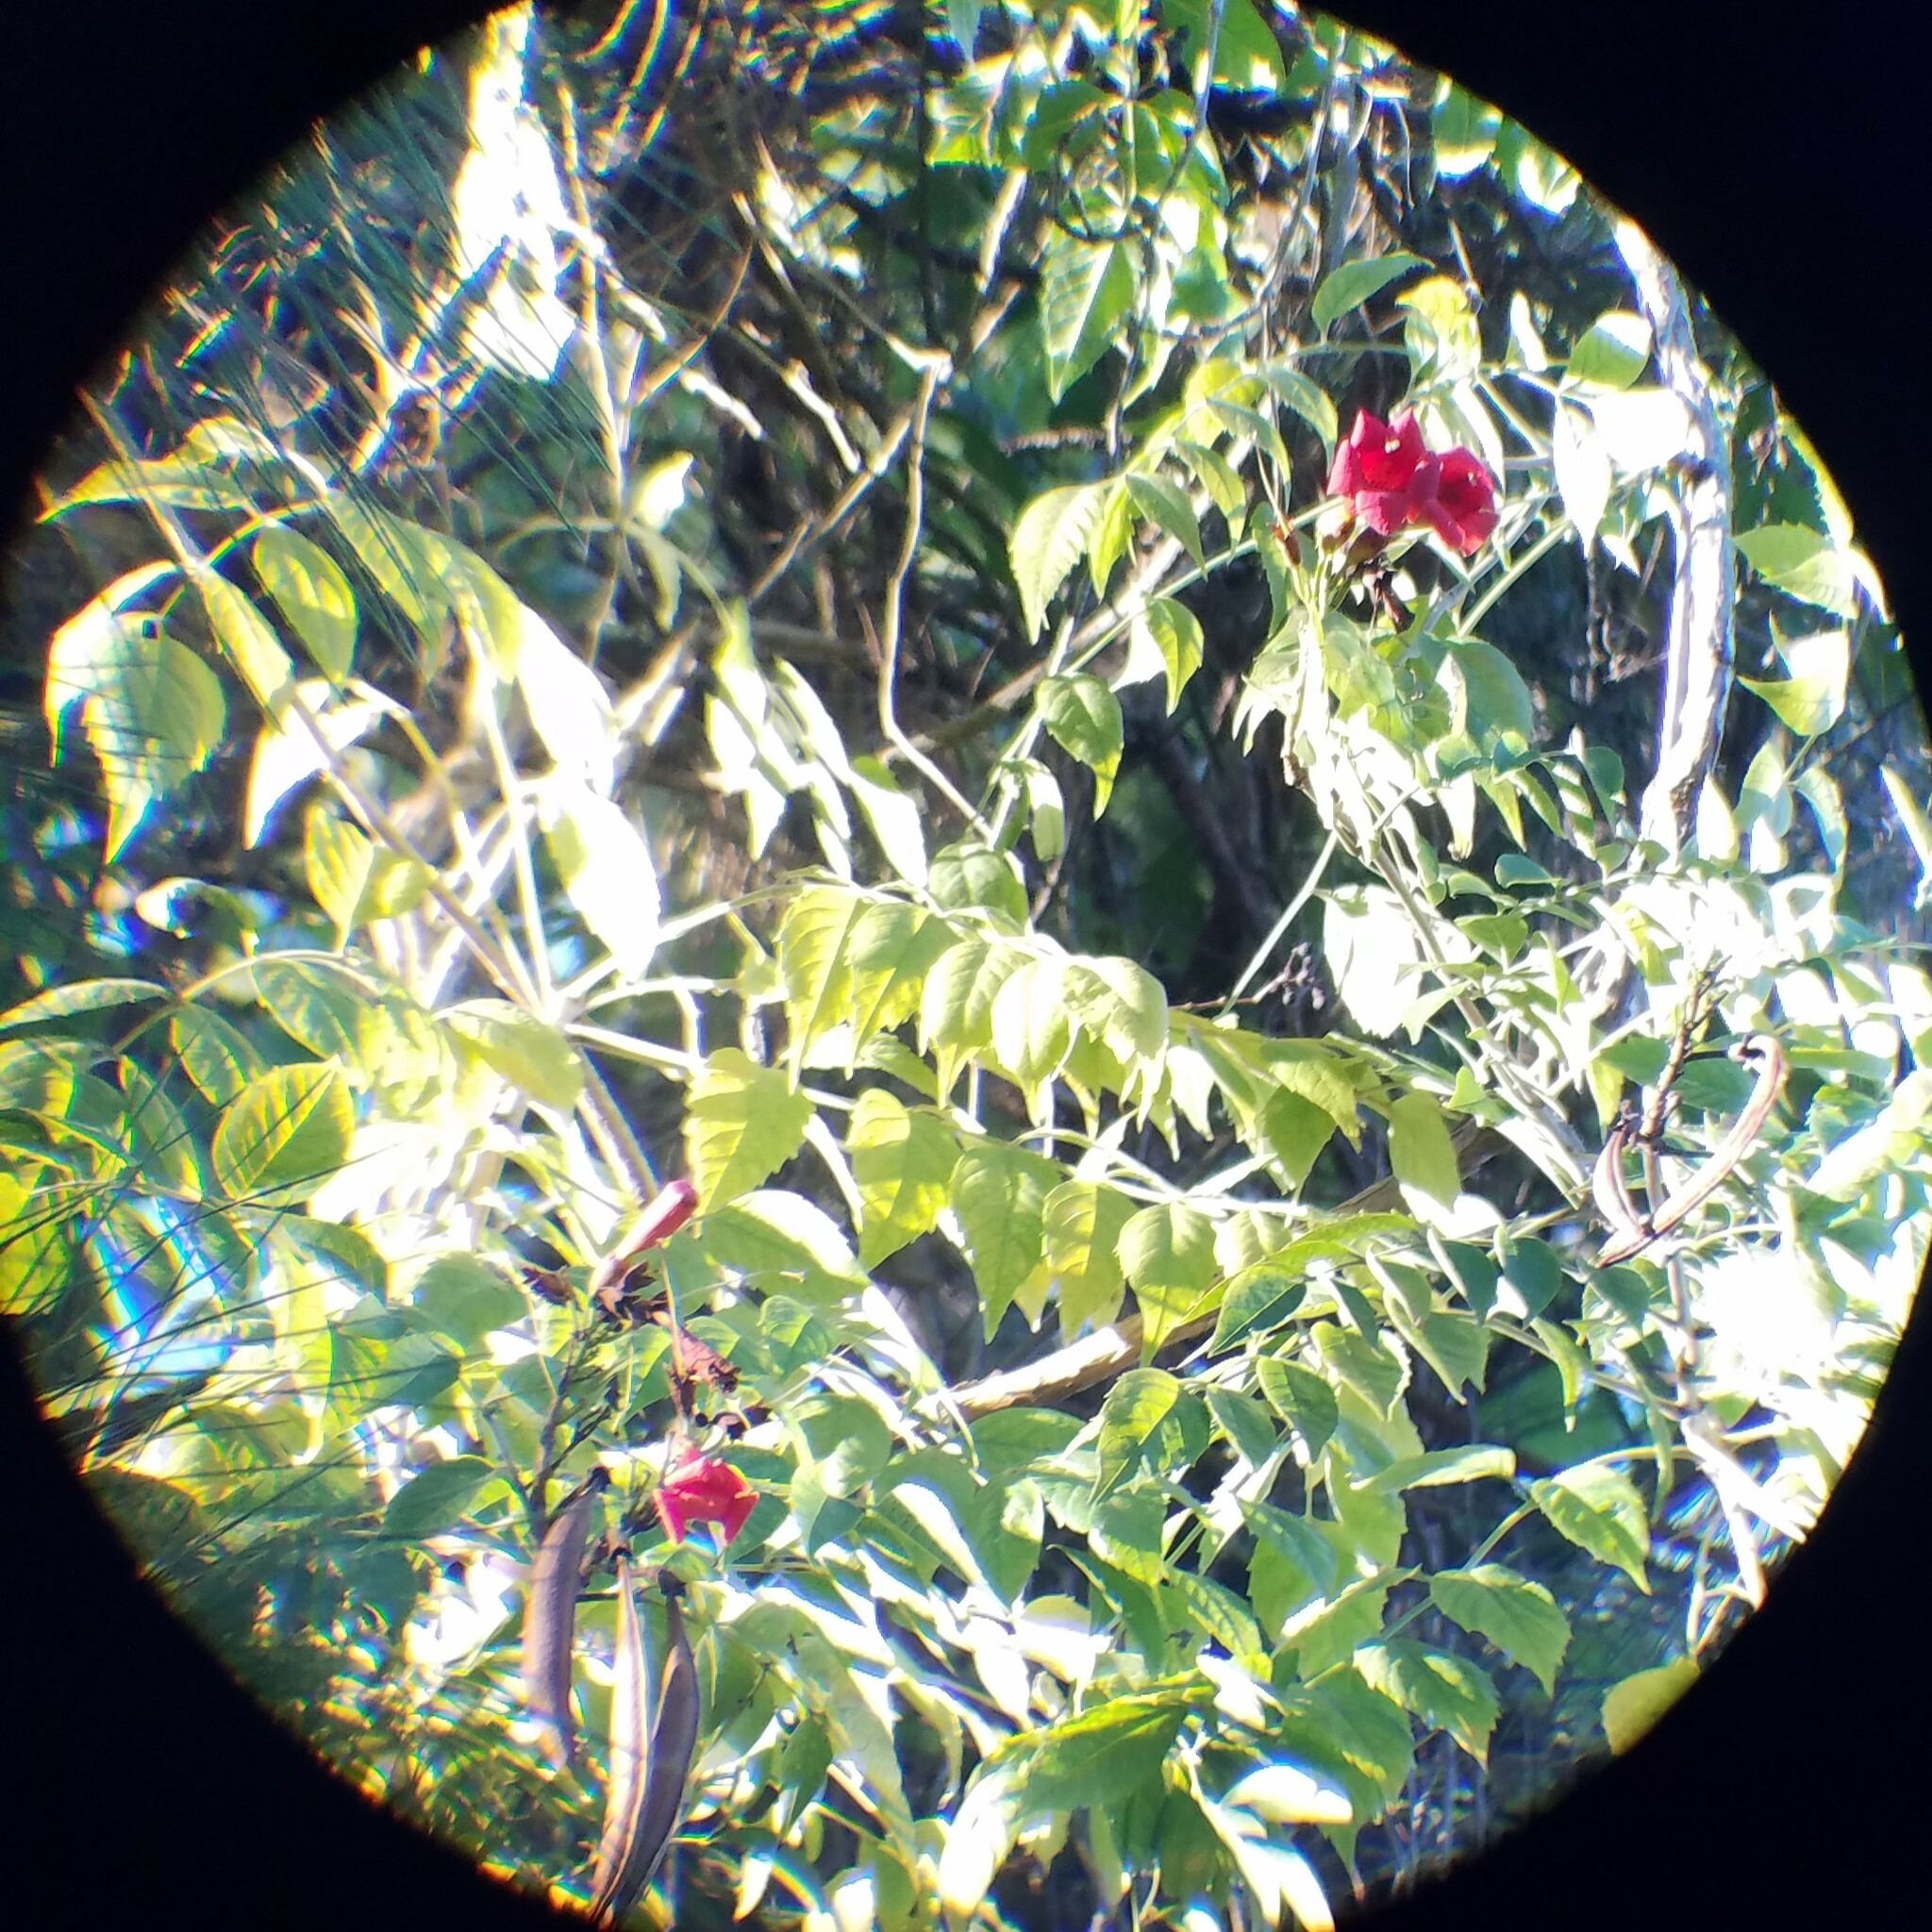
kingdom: Plantae
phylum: Tracheophyta
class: Magnoliopsida
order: Lamiales
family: Bignoniaceae
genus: Campsis
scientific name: Campsis radicans
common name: Trumpet-creeper
